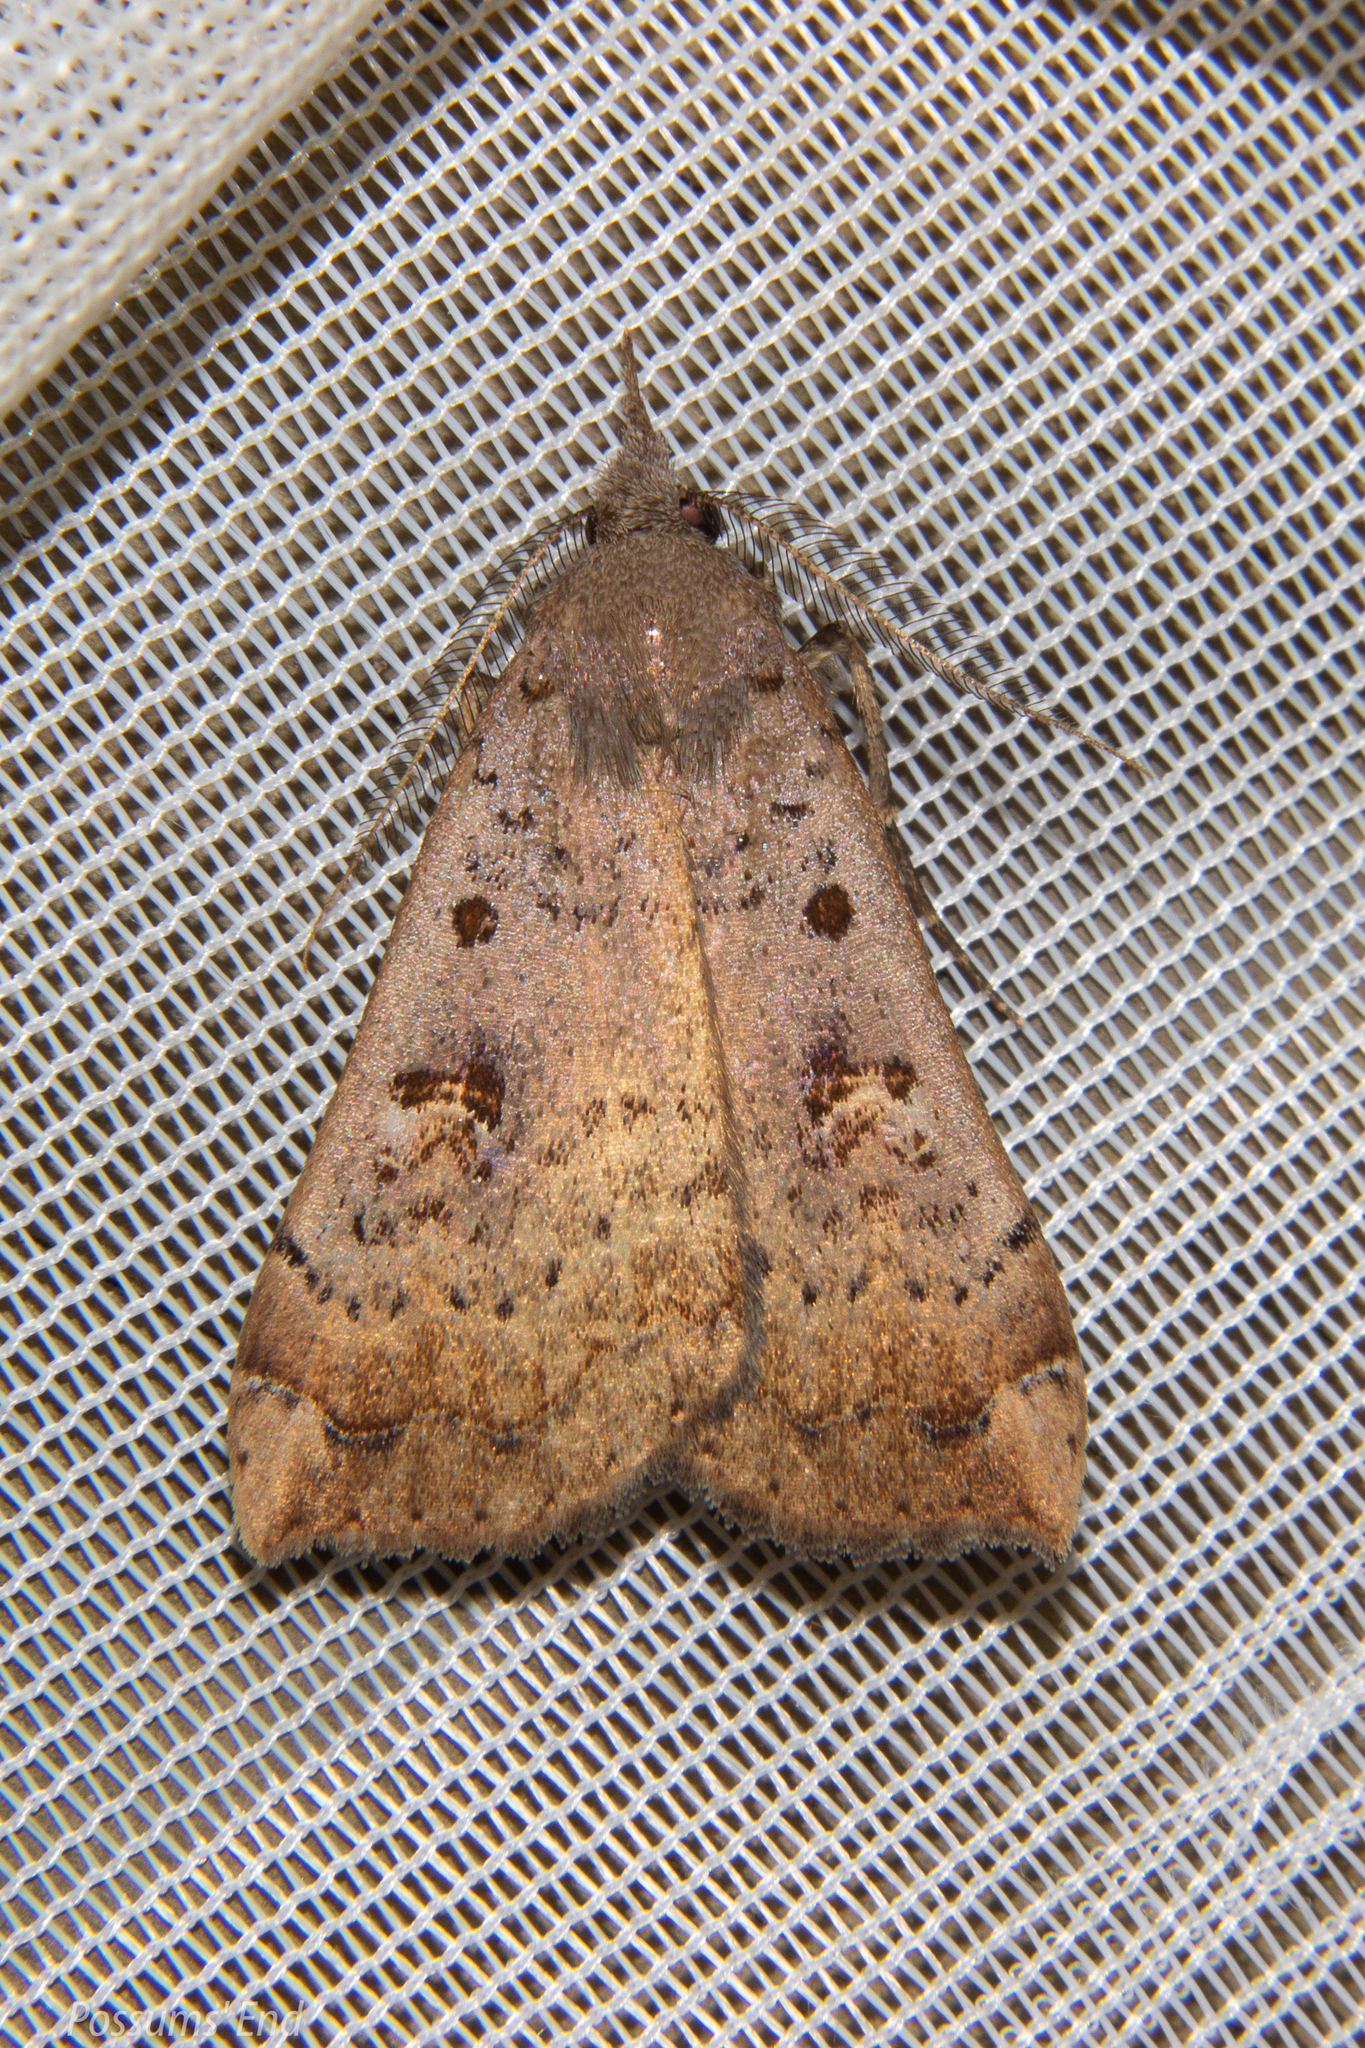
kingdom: Animalia
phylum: Arthropoda
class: Insecta
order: Lepidoptera
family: Erebidae
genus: Rhapsa
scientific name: Rhapsa scotosialis
